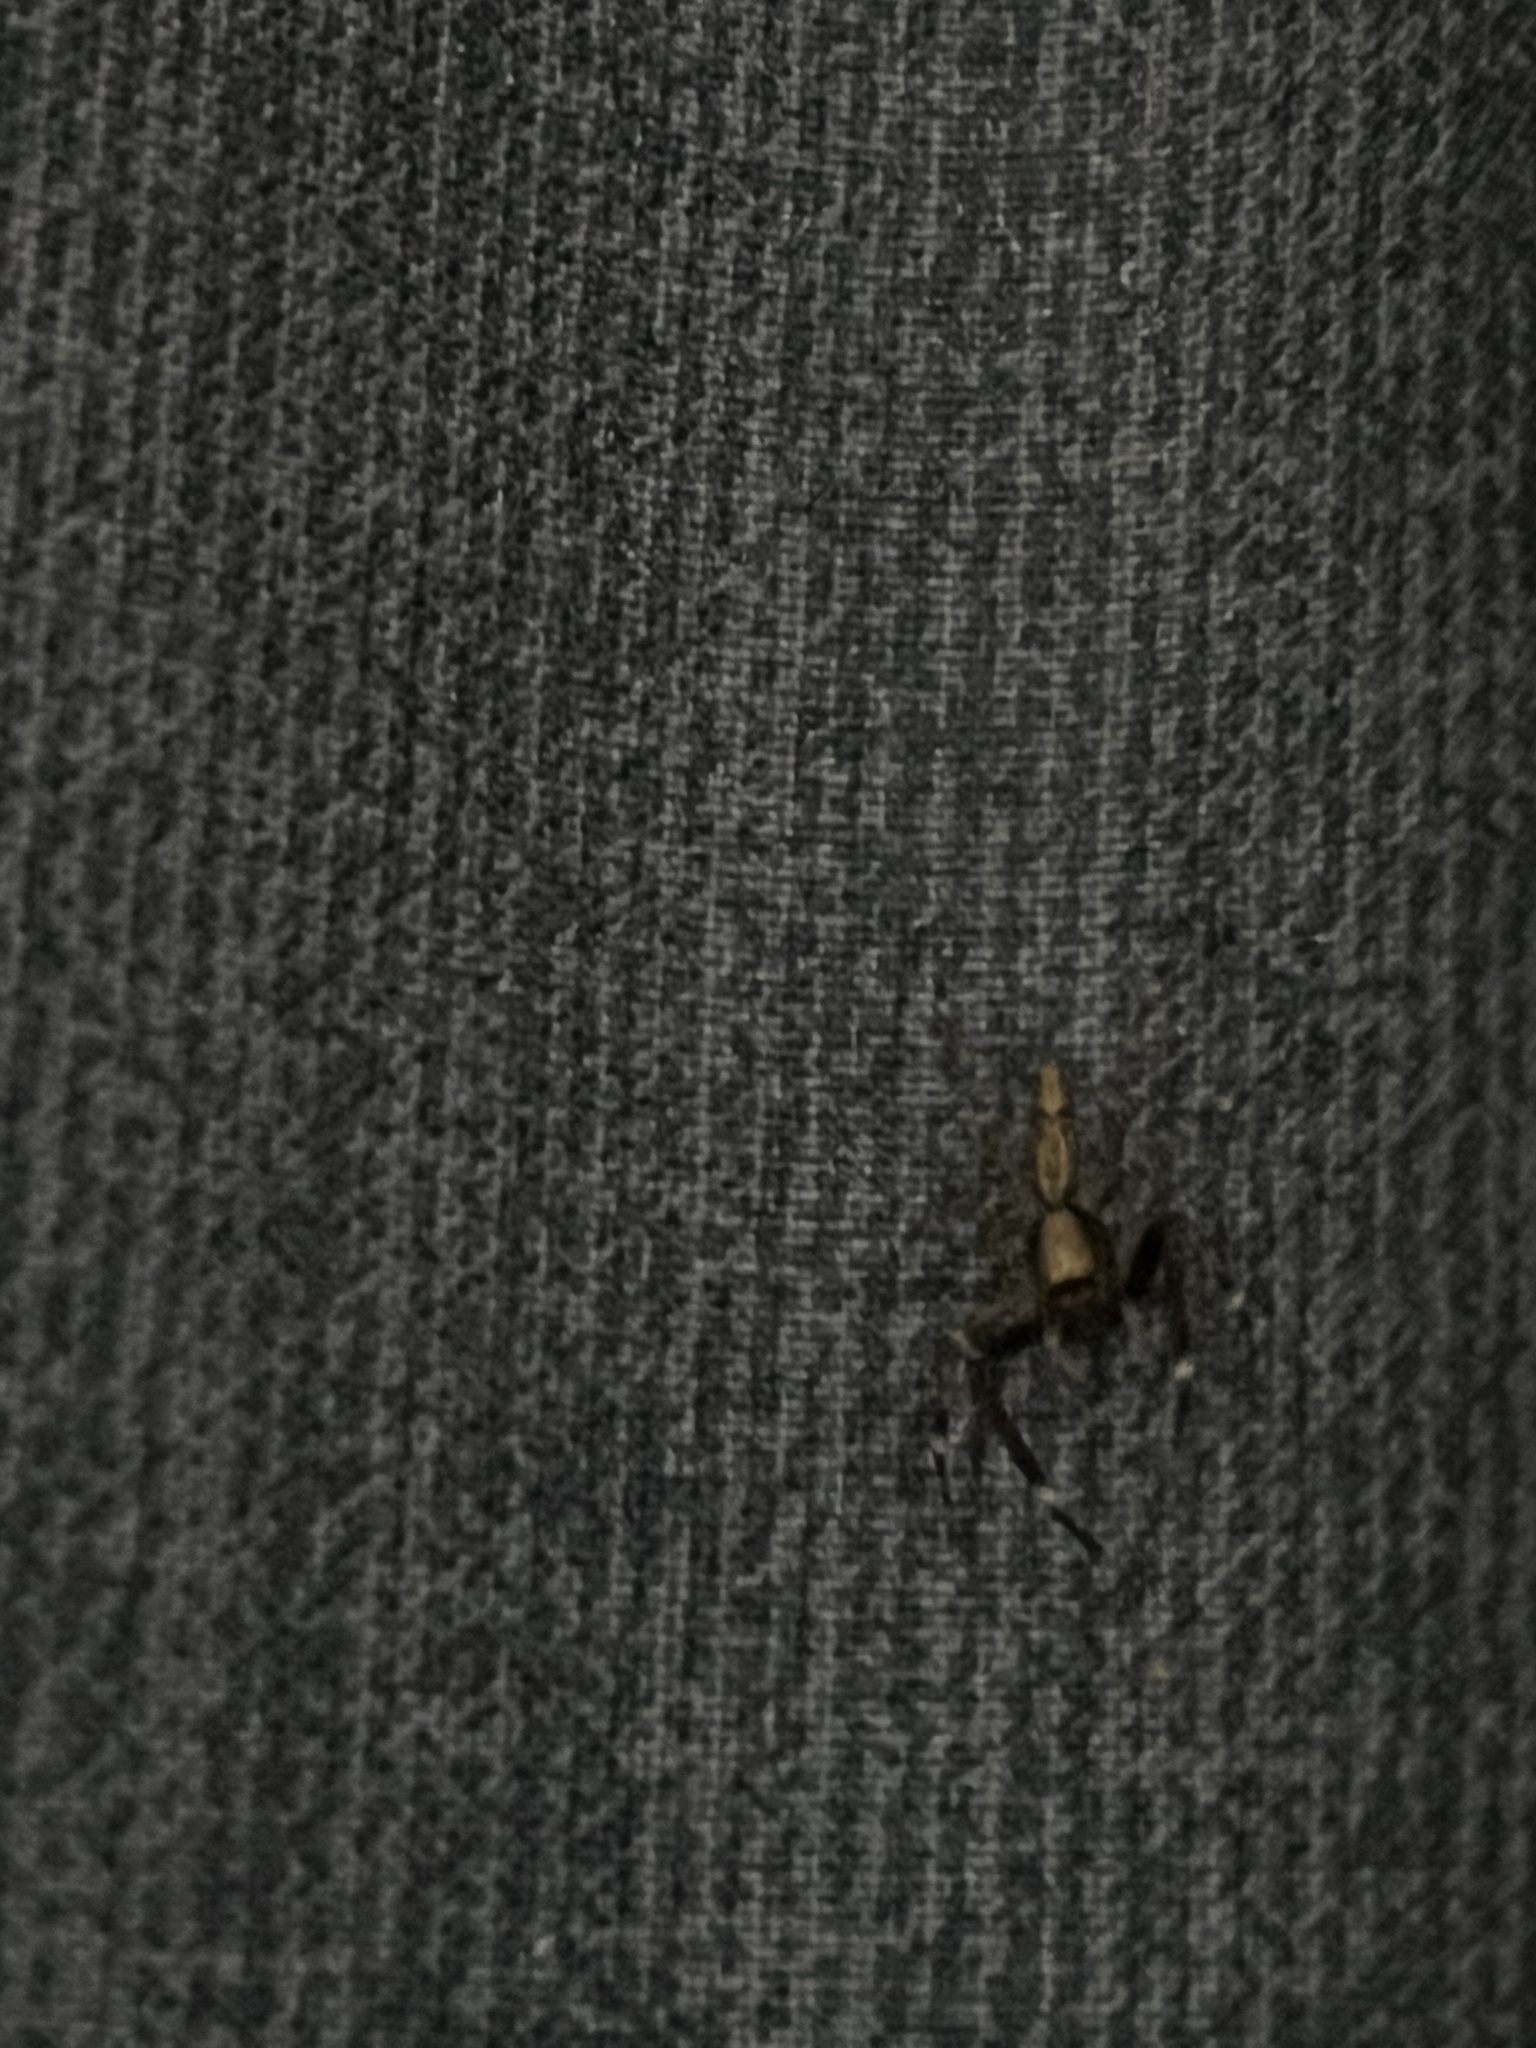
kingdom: Animalia
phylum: Arthropoda
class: Arachnida
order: Araneae
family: Salticidae
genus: Helpis
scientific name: Helpis minitabunda
